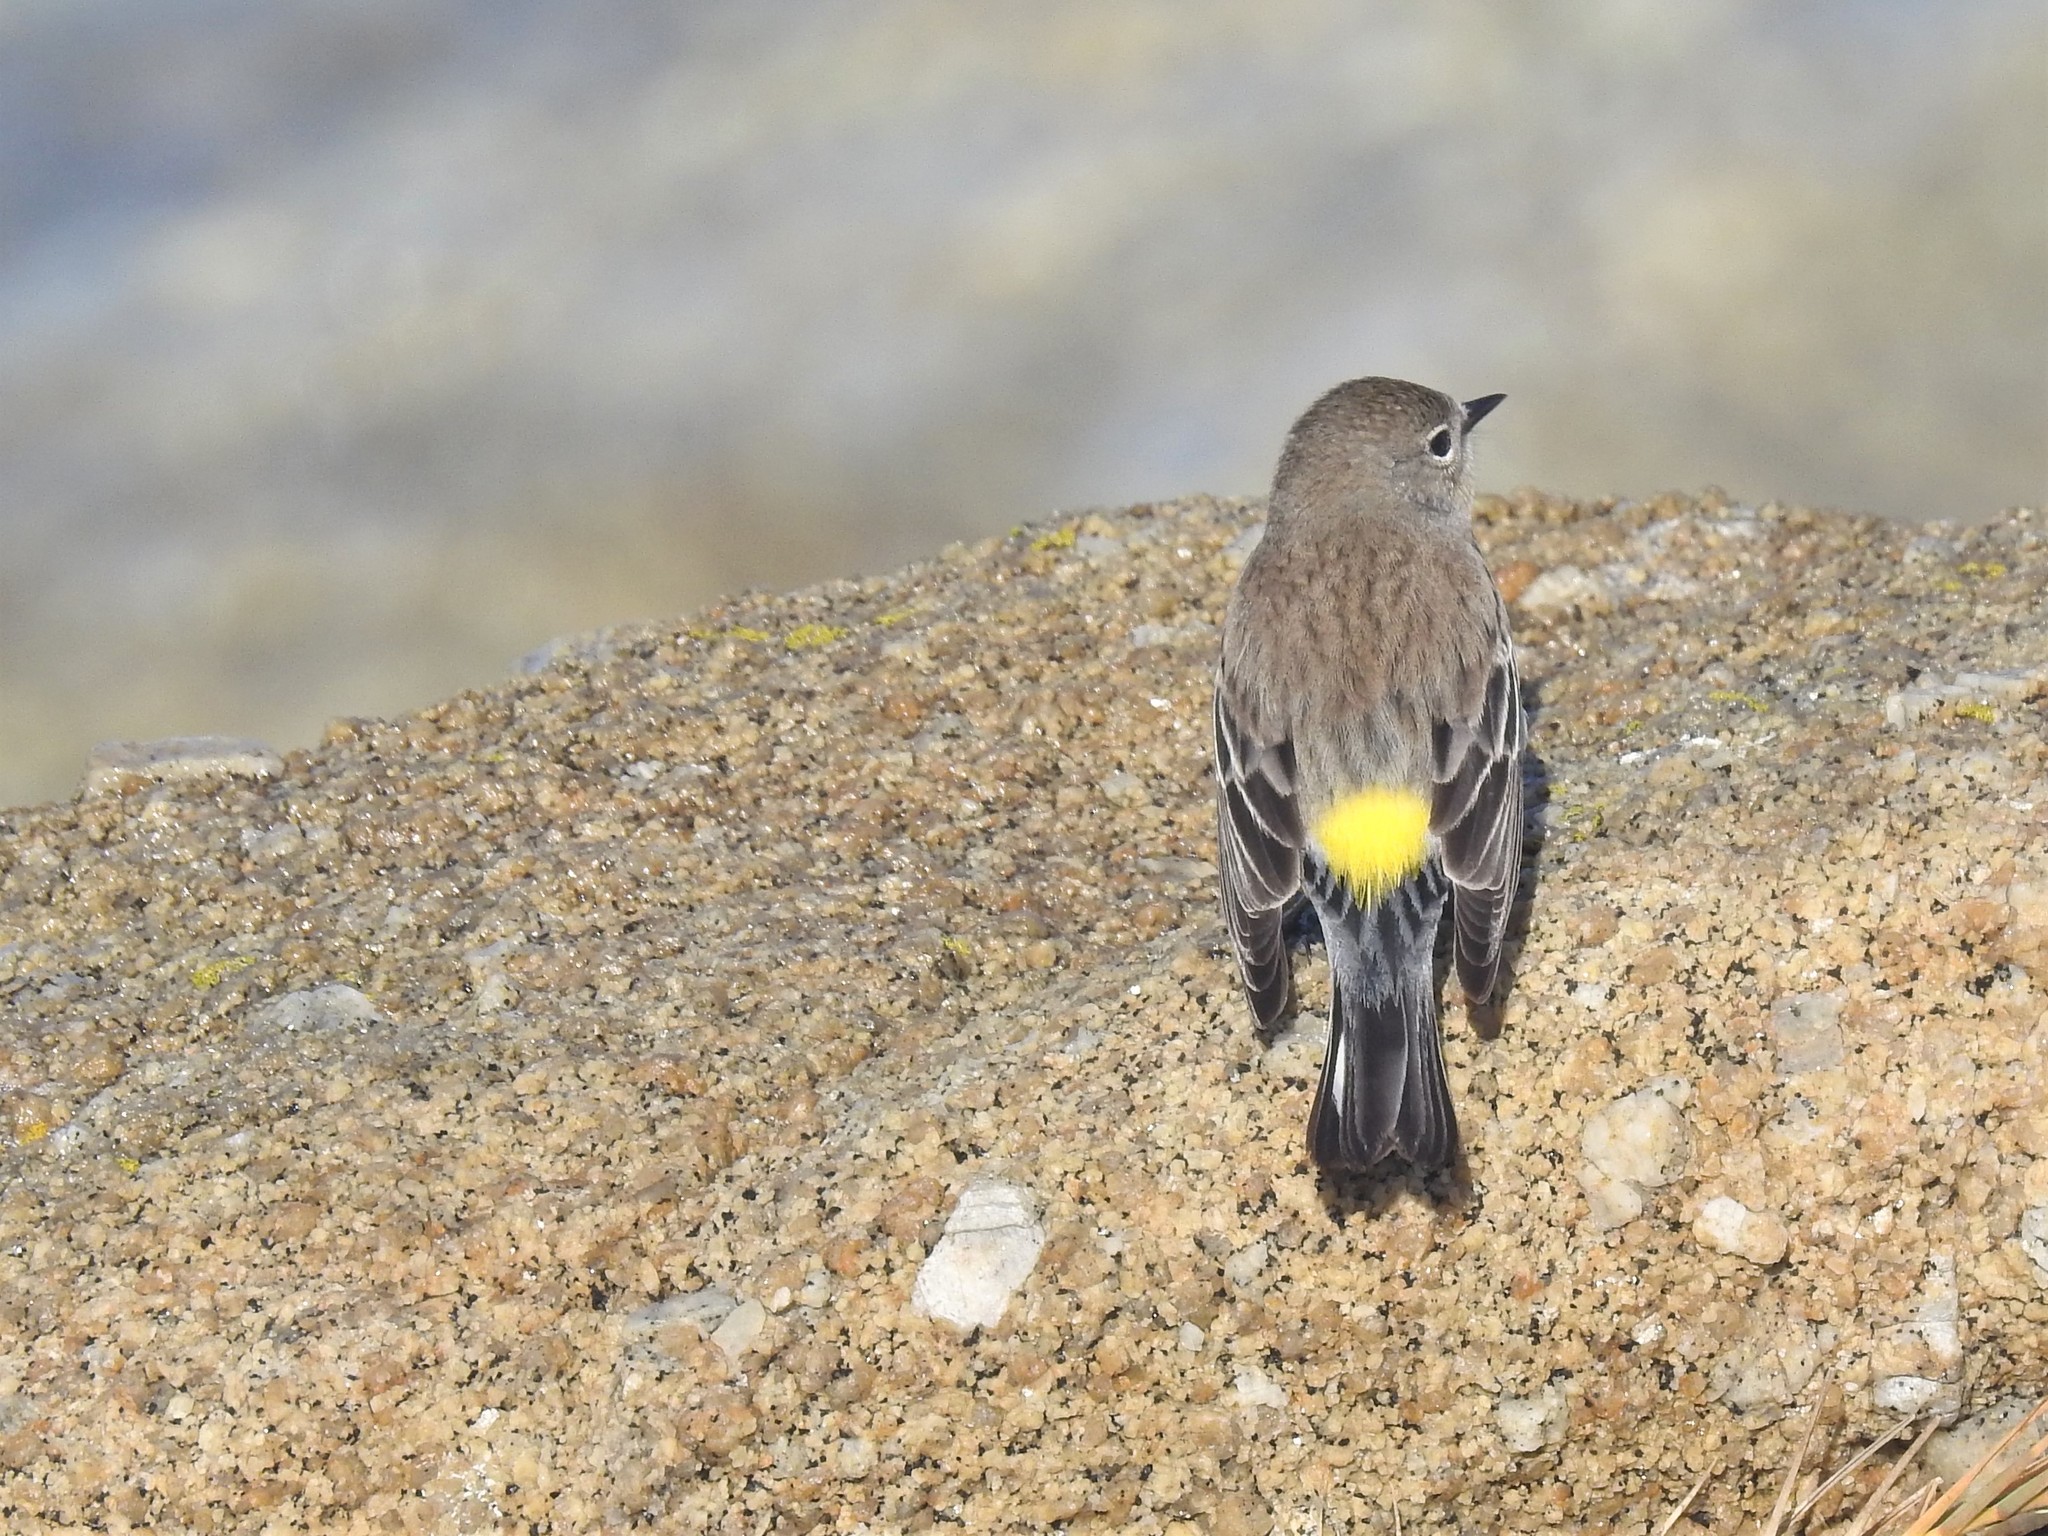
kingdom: Animalia
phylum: Chordata
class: Aves
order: Passeriformes
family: Parulidae
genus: Setophaga
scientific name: Setophaga coronata
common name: Myrtle warbler
